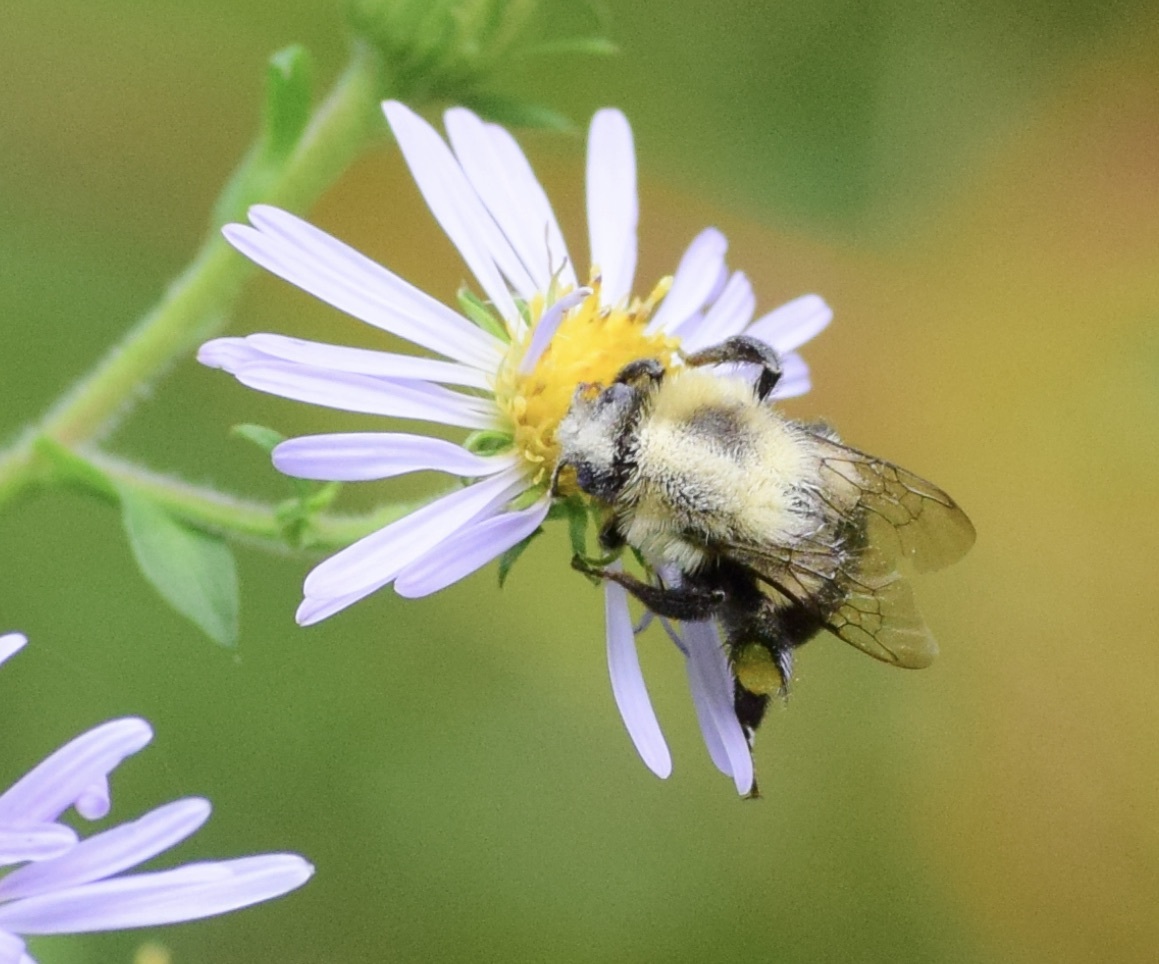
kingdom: Animalia
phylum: Arthropoda
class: Insecta
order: Hymenoptera
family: Apidae
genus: Bombus
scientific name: Bombus impatiens
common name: Common eastern bumble bee
